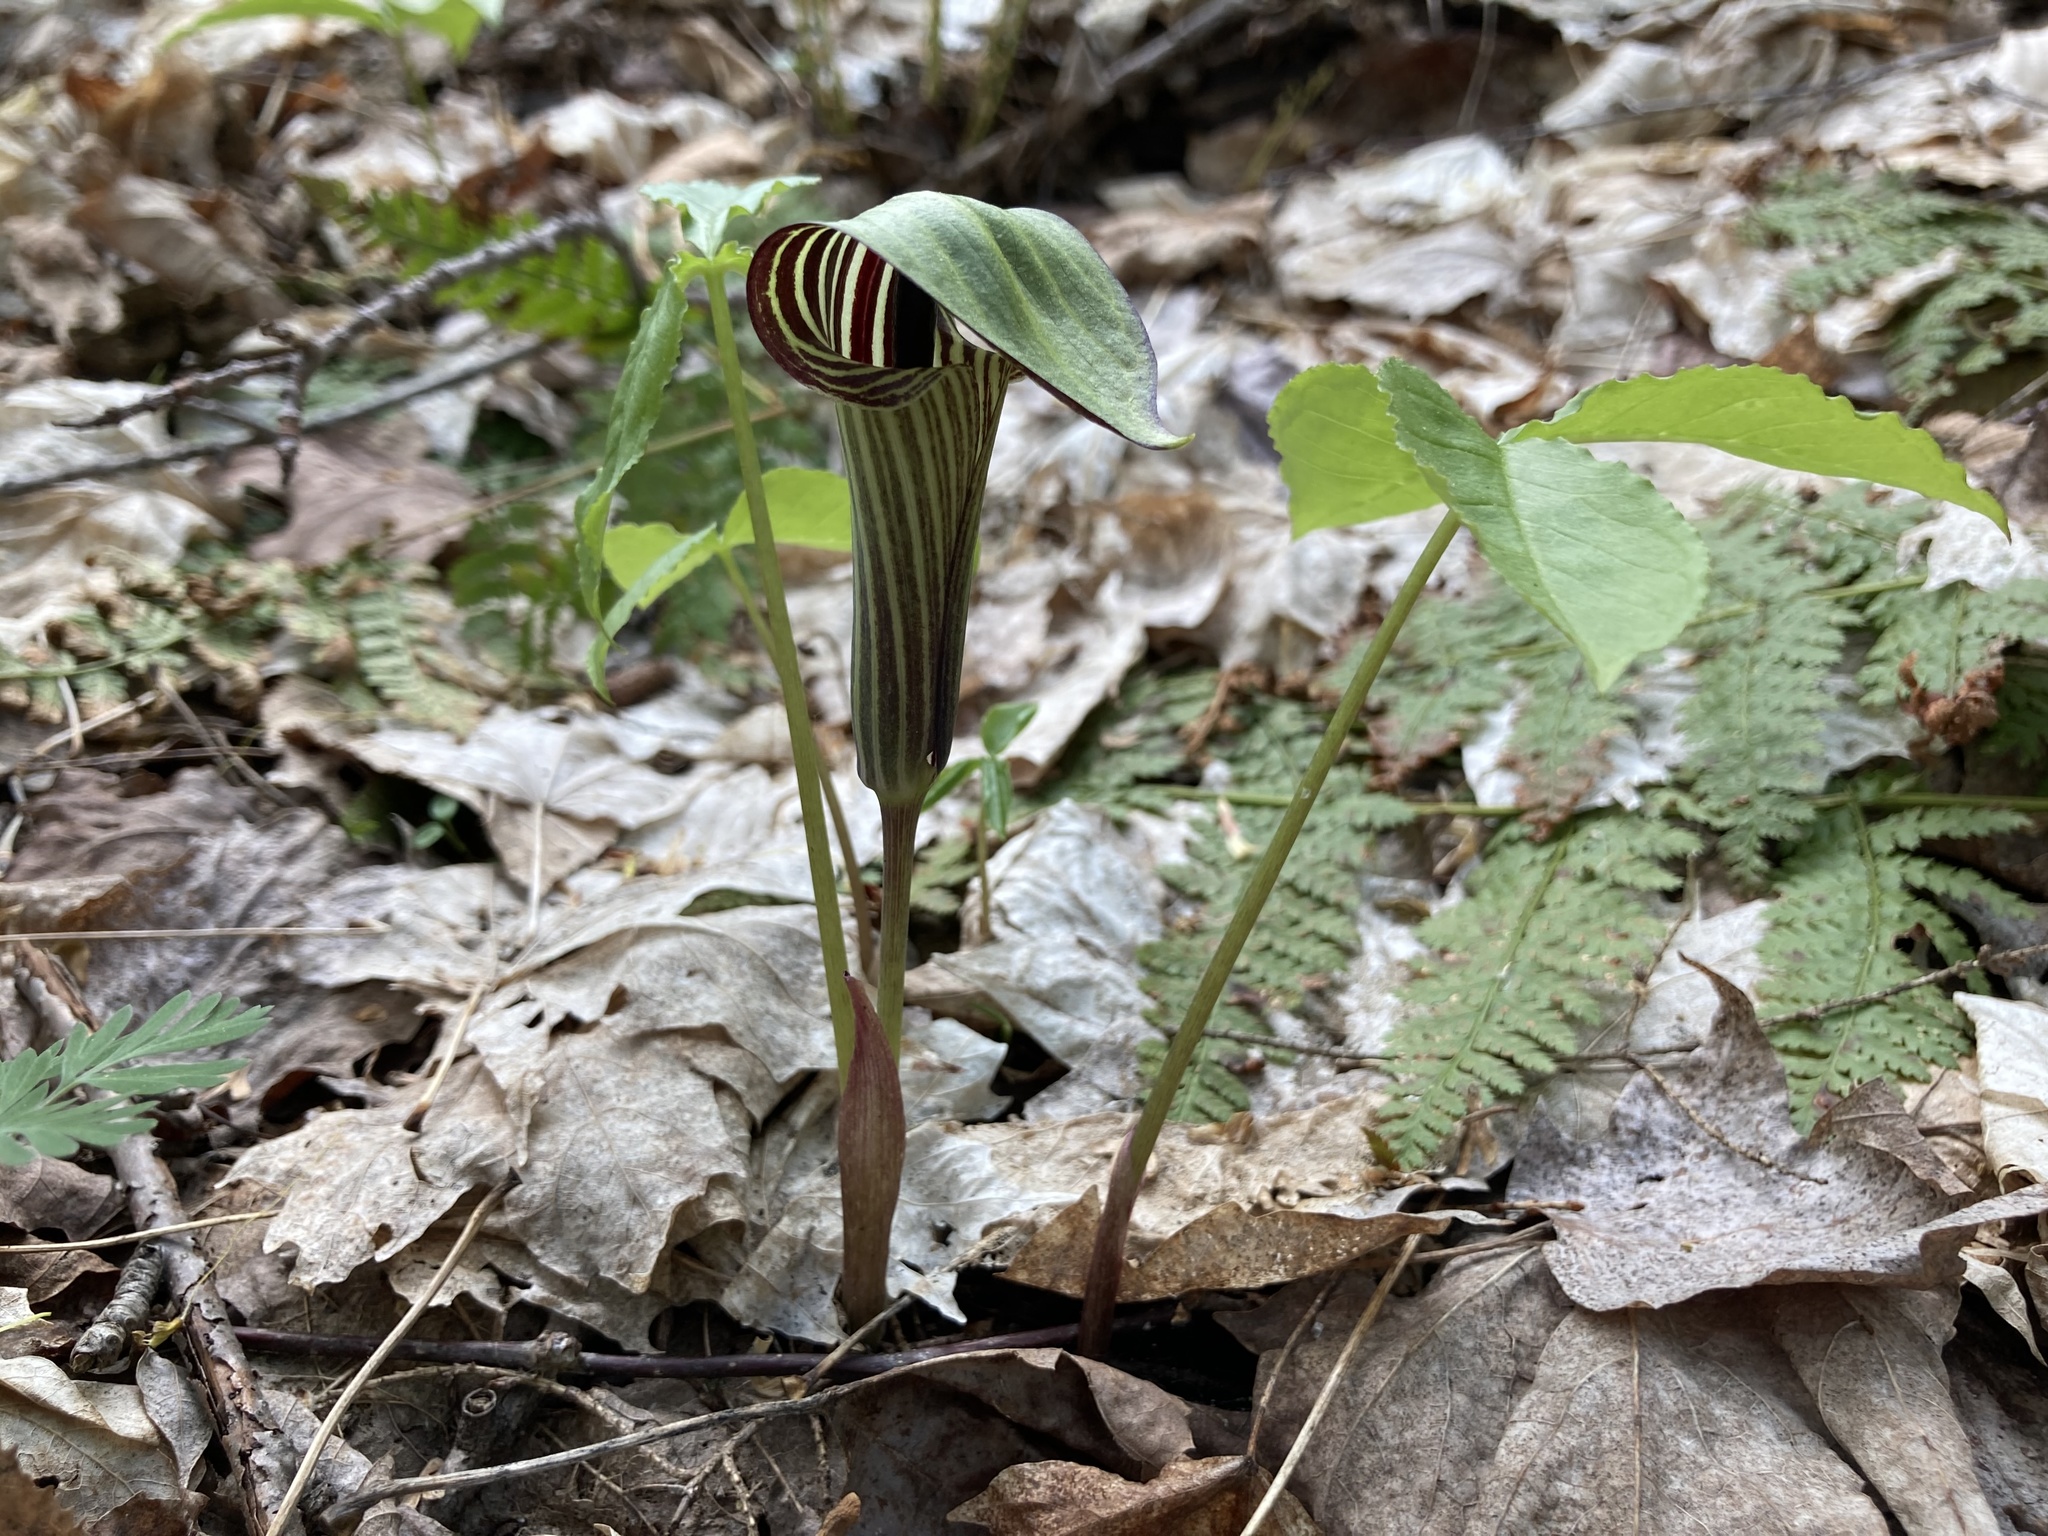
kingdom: Plantae
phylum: Tracheophyta
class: Liliopsida
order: Alismatales
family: Araceae
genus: Arisaema
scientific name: Arisaema triphyllum
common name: Jack-in-the-pulpit
